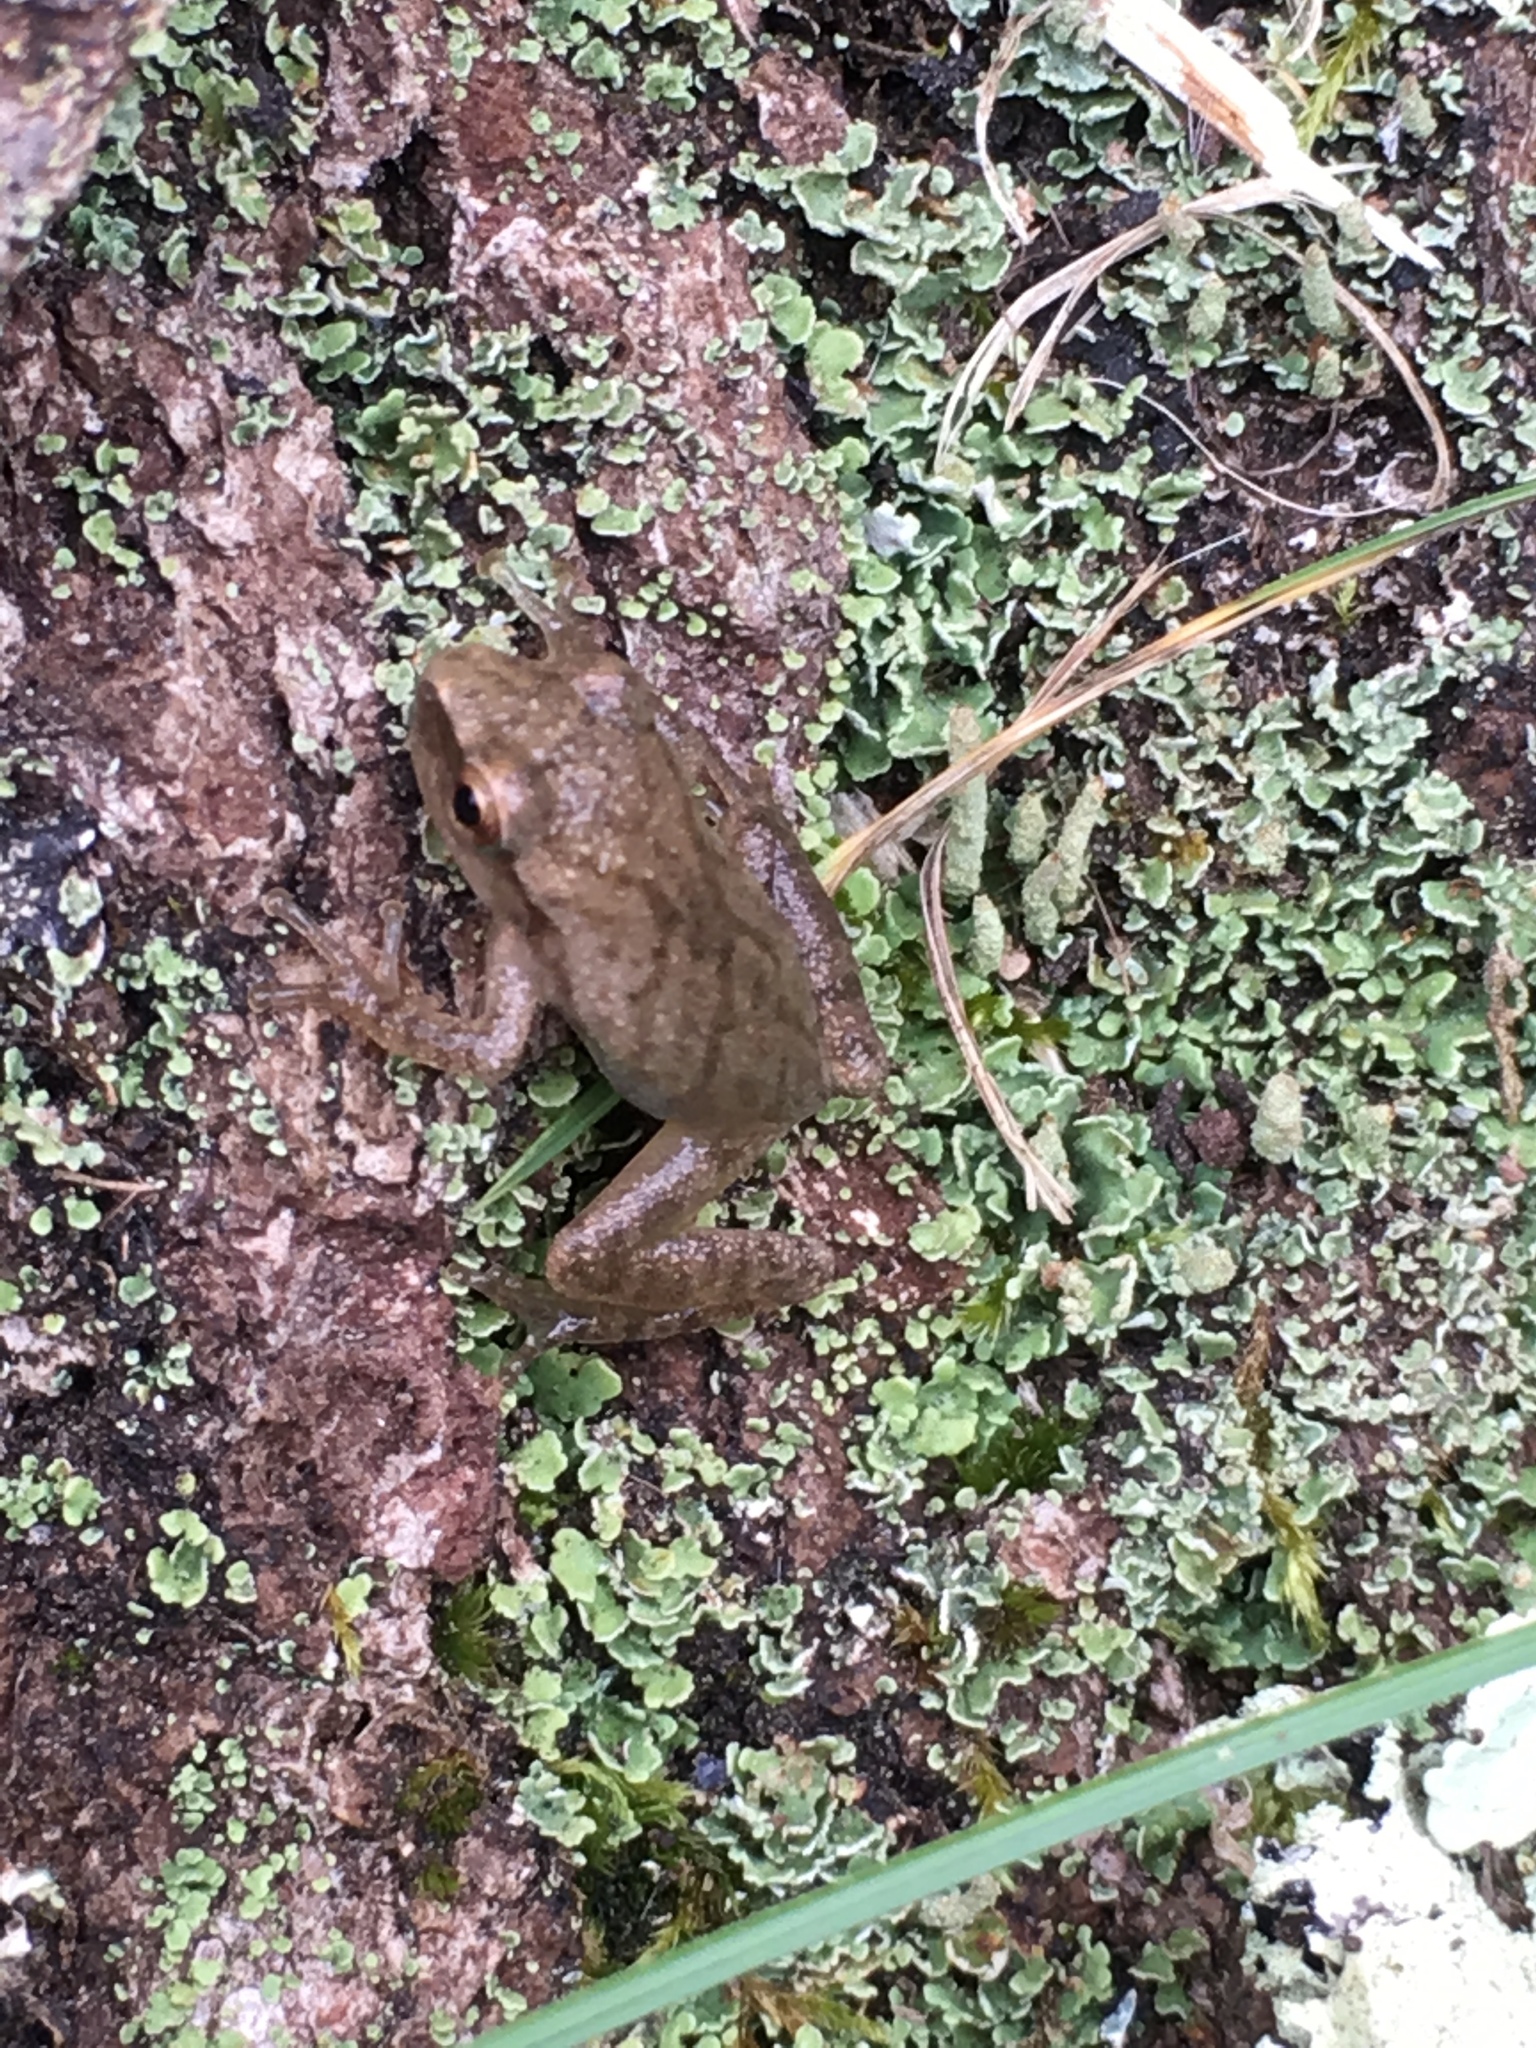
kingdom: Animalia
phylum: Chordata
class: Amphibia
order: Anura
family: Hylidae
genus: Pseudacris
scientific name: Pseudacris crucifer
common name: Spring peeper
